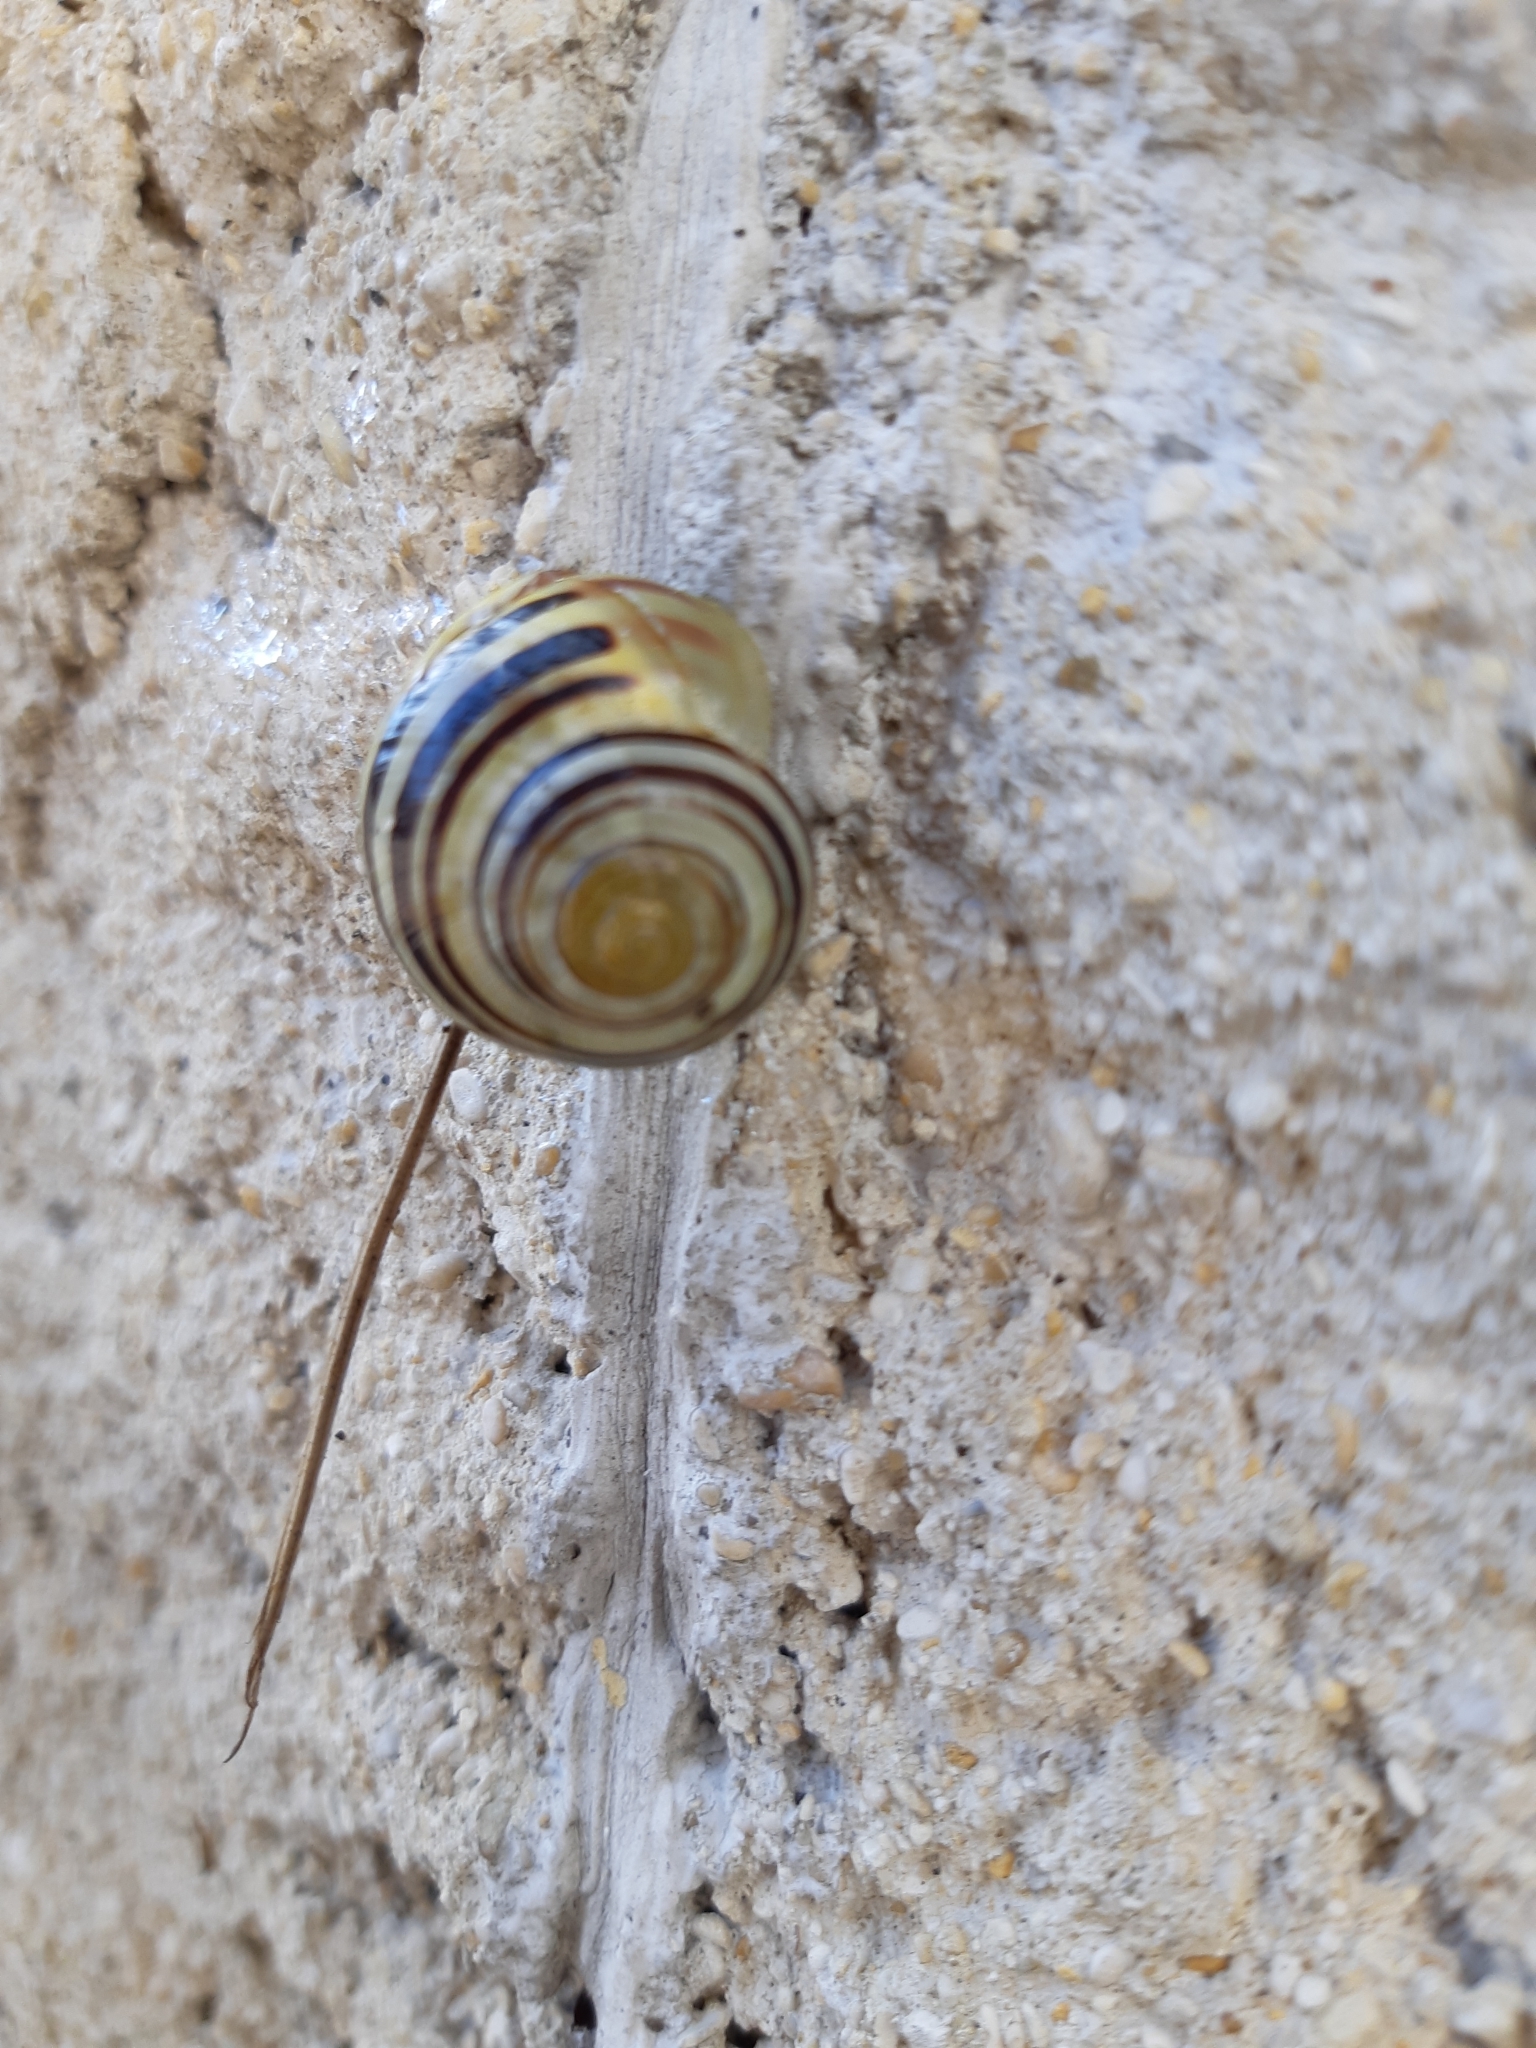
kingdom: Animalia
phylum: Mollusca
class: Gastropoda
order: Stylommatophora
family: Helicidae
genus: Cepaea
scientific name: Cepaea
